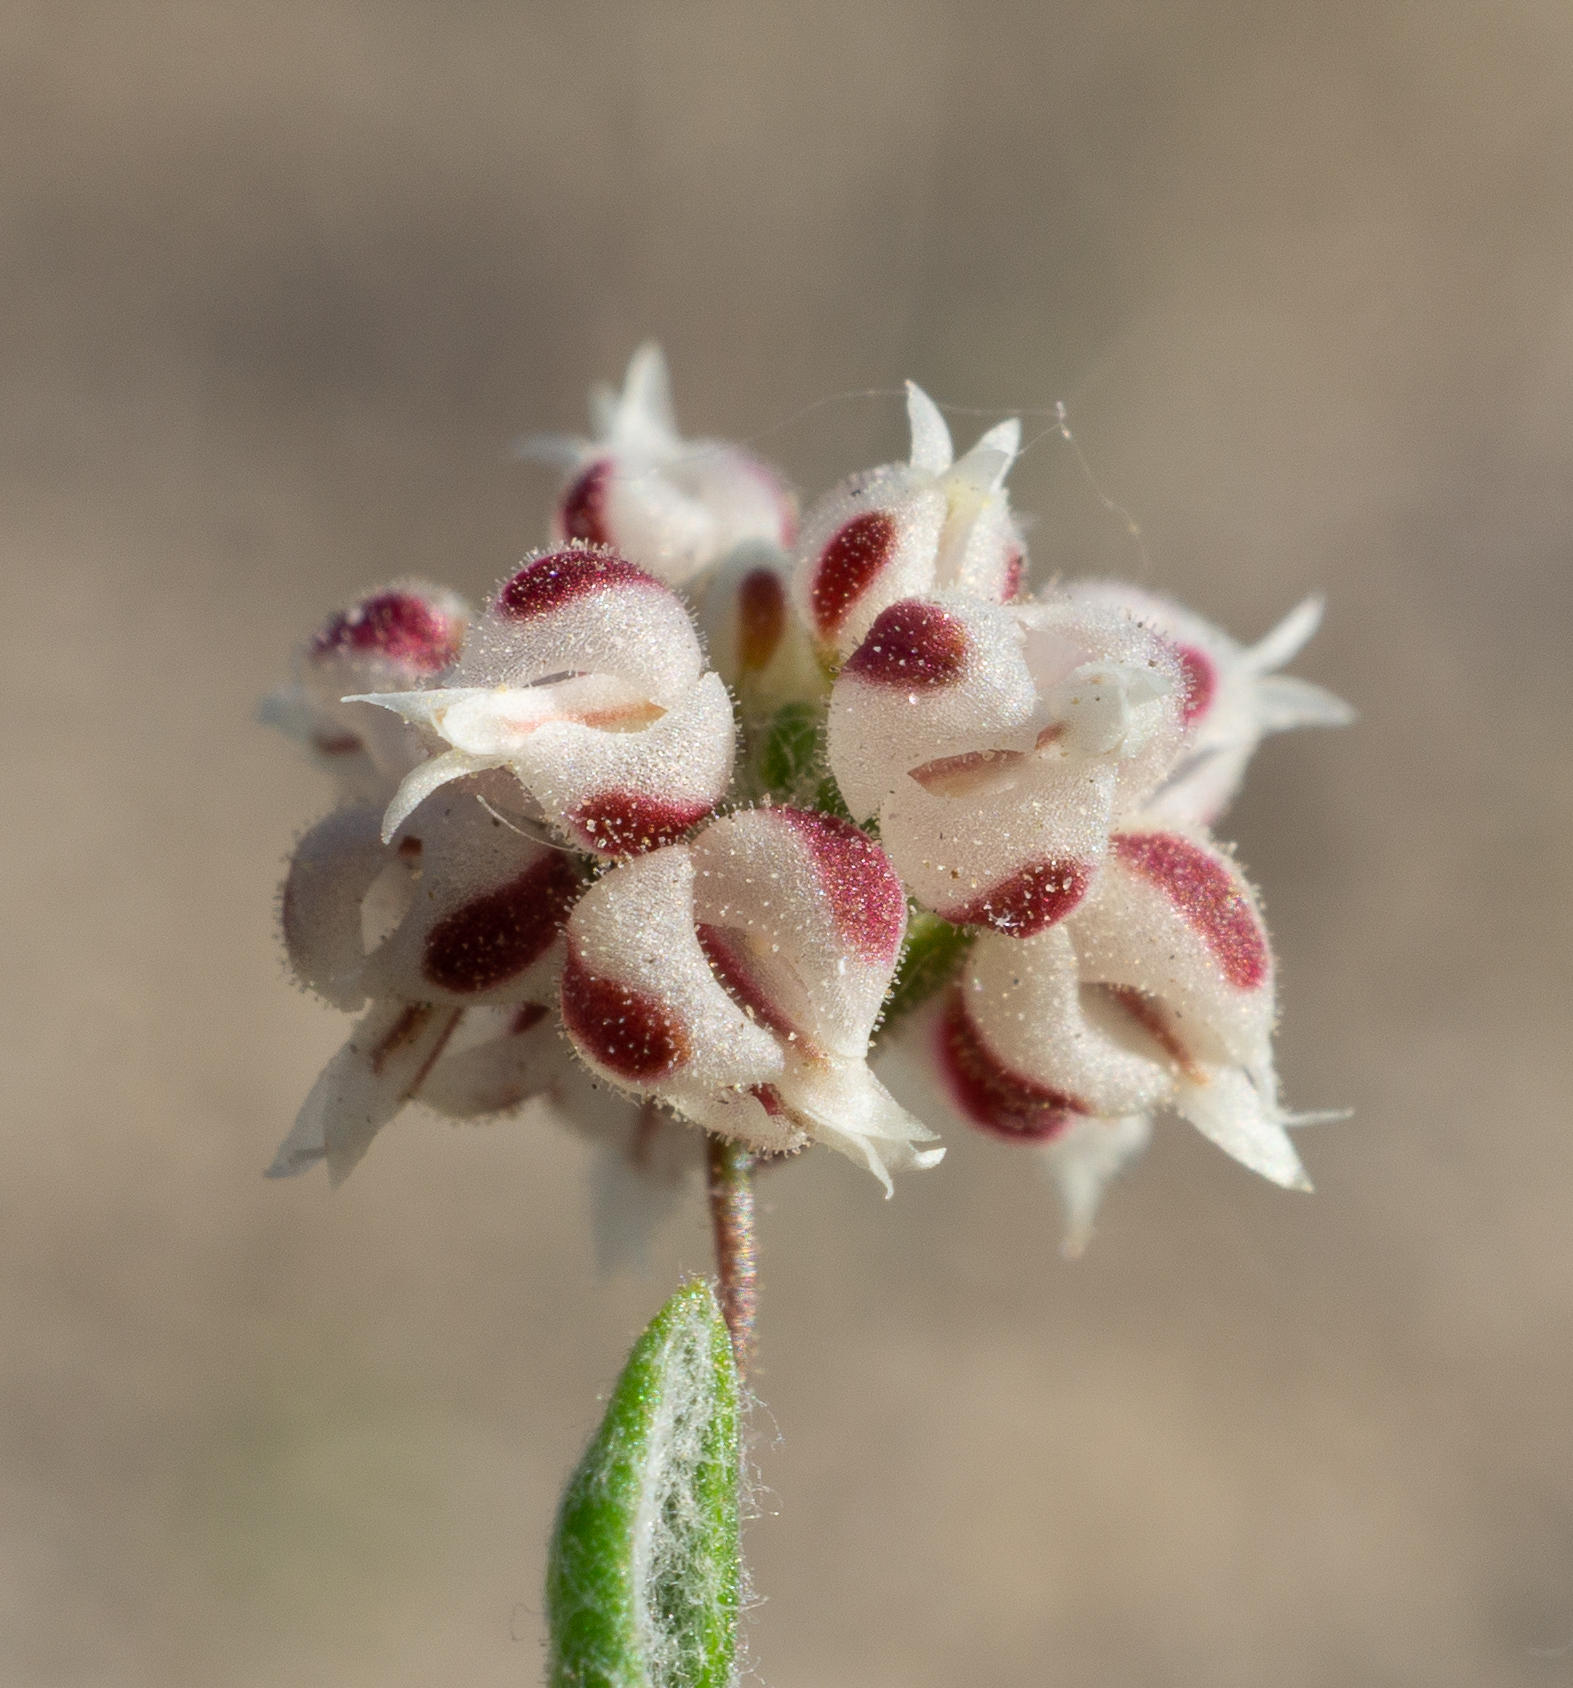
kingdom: Plantae
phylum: Tracheophyta
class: Magnoliopsida
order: Caryophyllales
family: Polygonaceae
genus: Eriogonum
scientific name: Eriogonum maculatum
